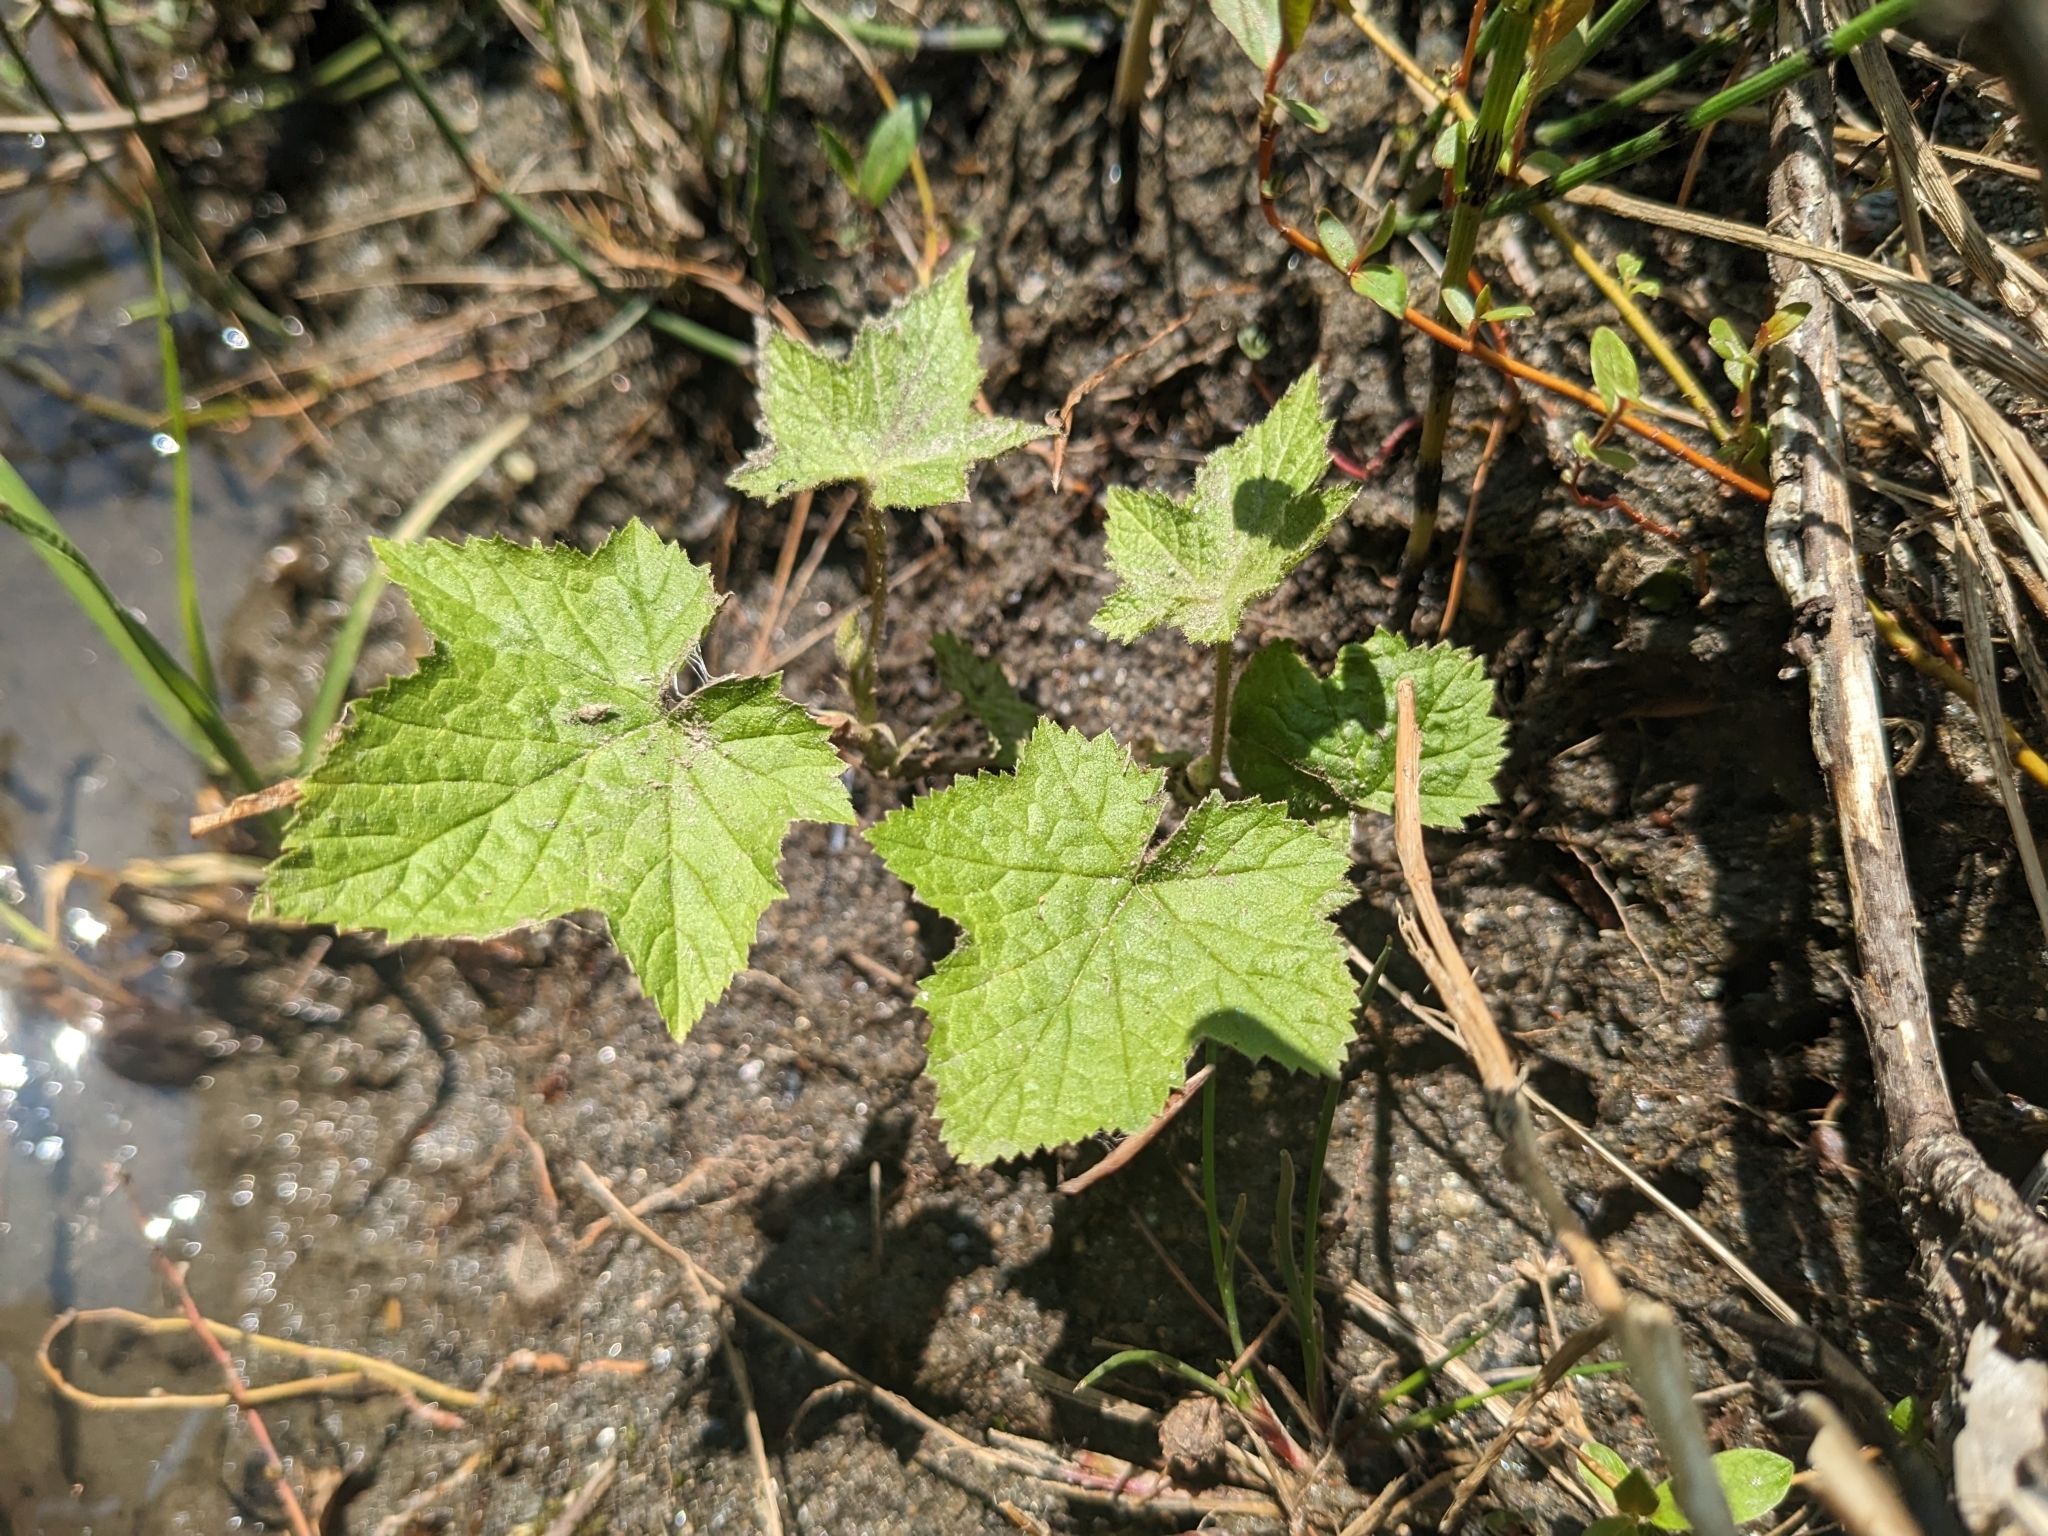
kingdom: Plantae
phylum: Tracheophyta
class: Magnoliopsida
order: Rosales
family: Rosaceae
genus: Rubus
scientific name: Rubus odoratus
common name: Purple-flowered raspberry
